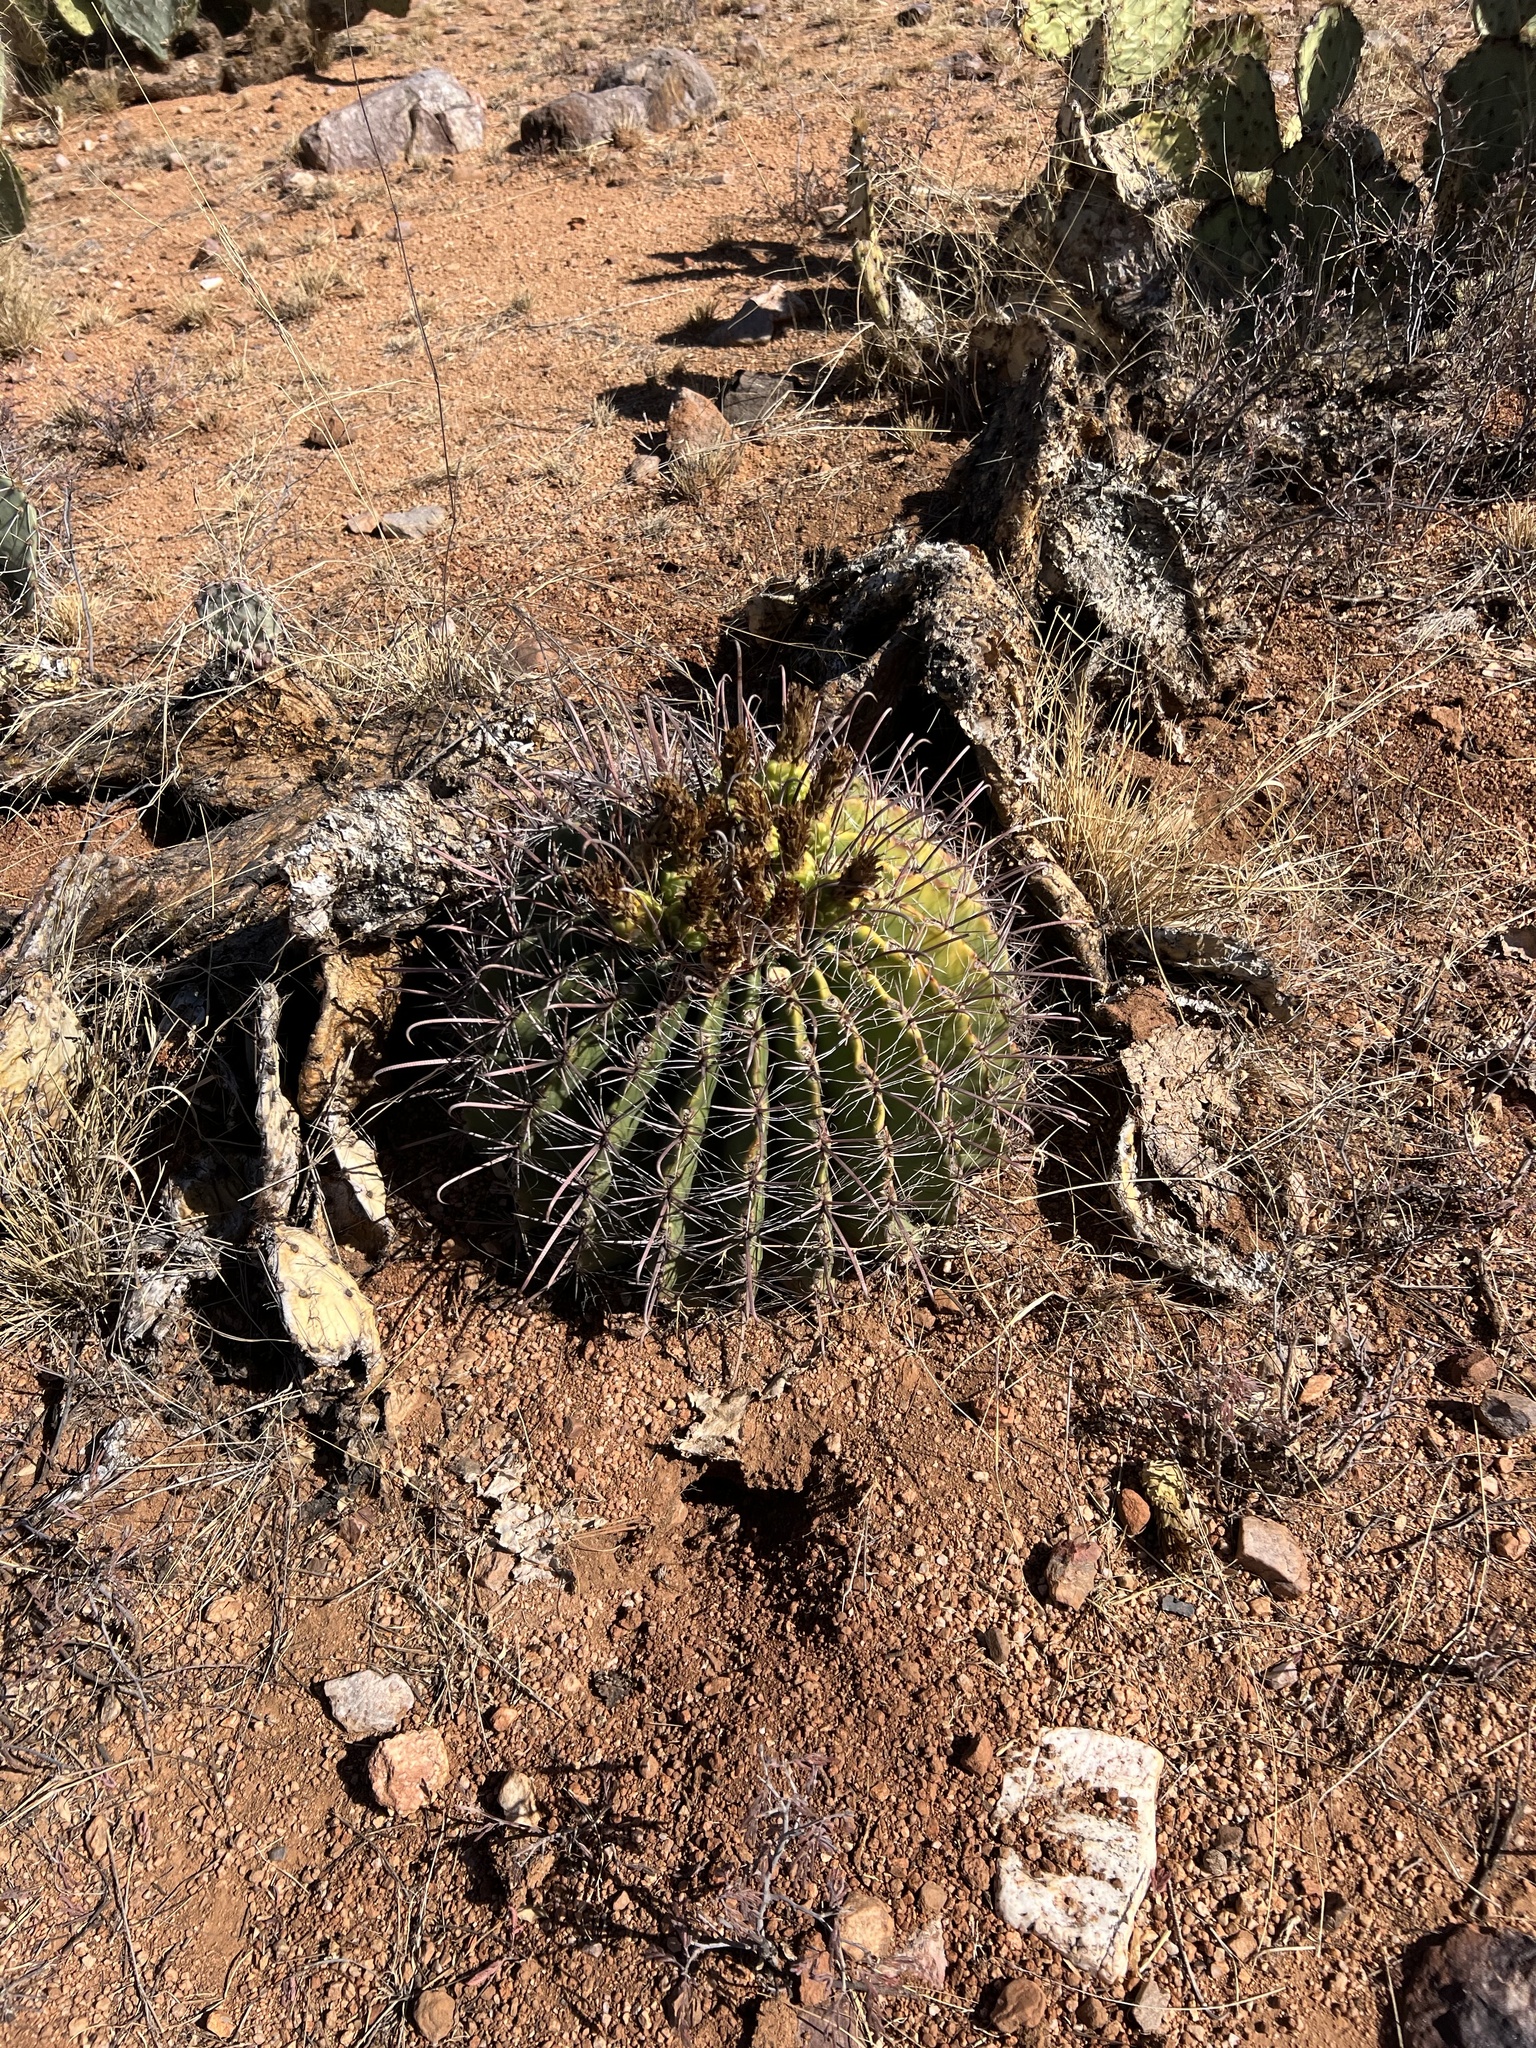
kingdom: Plantae
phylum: Tracheophyta
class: Magnoliopsida
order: Caryophyllales
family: Cactaceae
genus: Ferocactus
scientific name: Ferocactus wislizeni
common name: Candy barrel cactus
